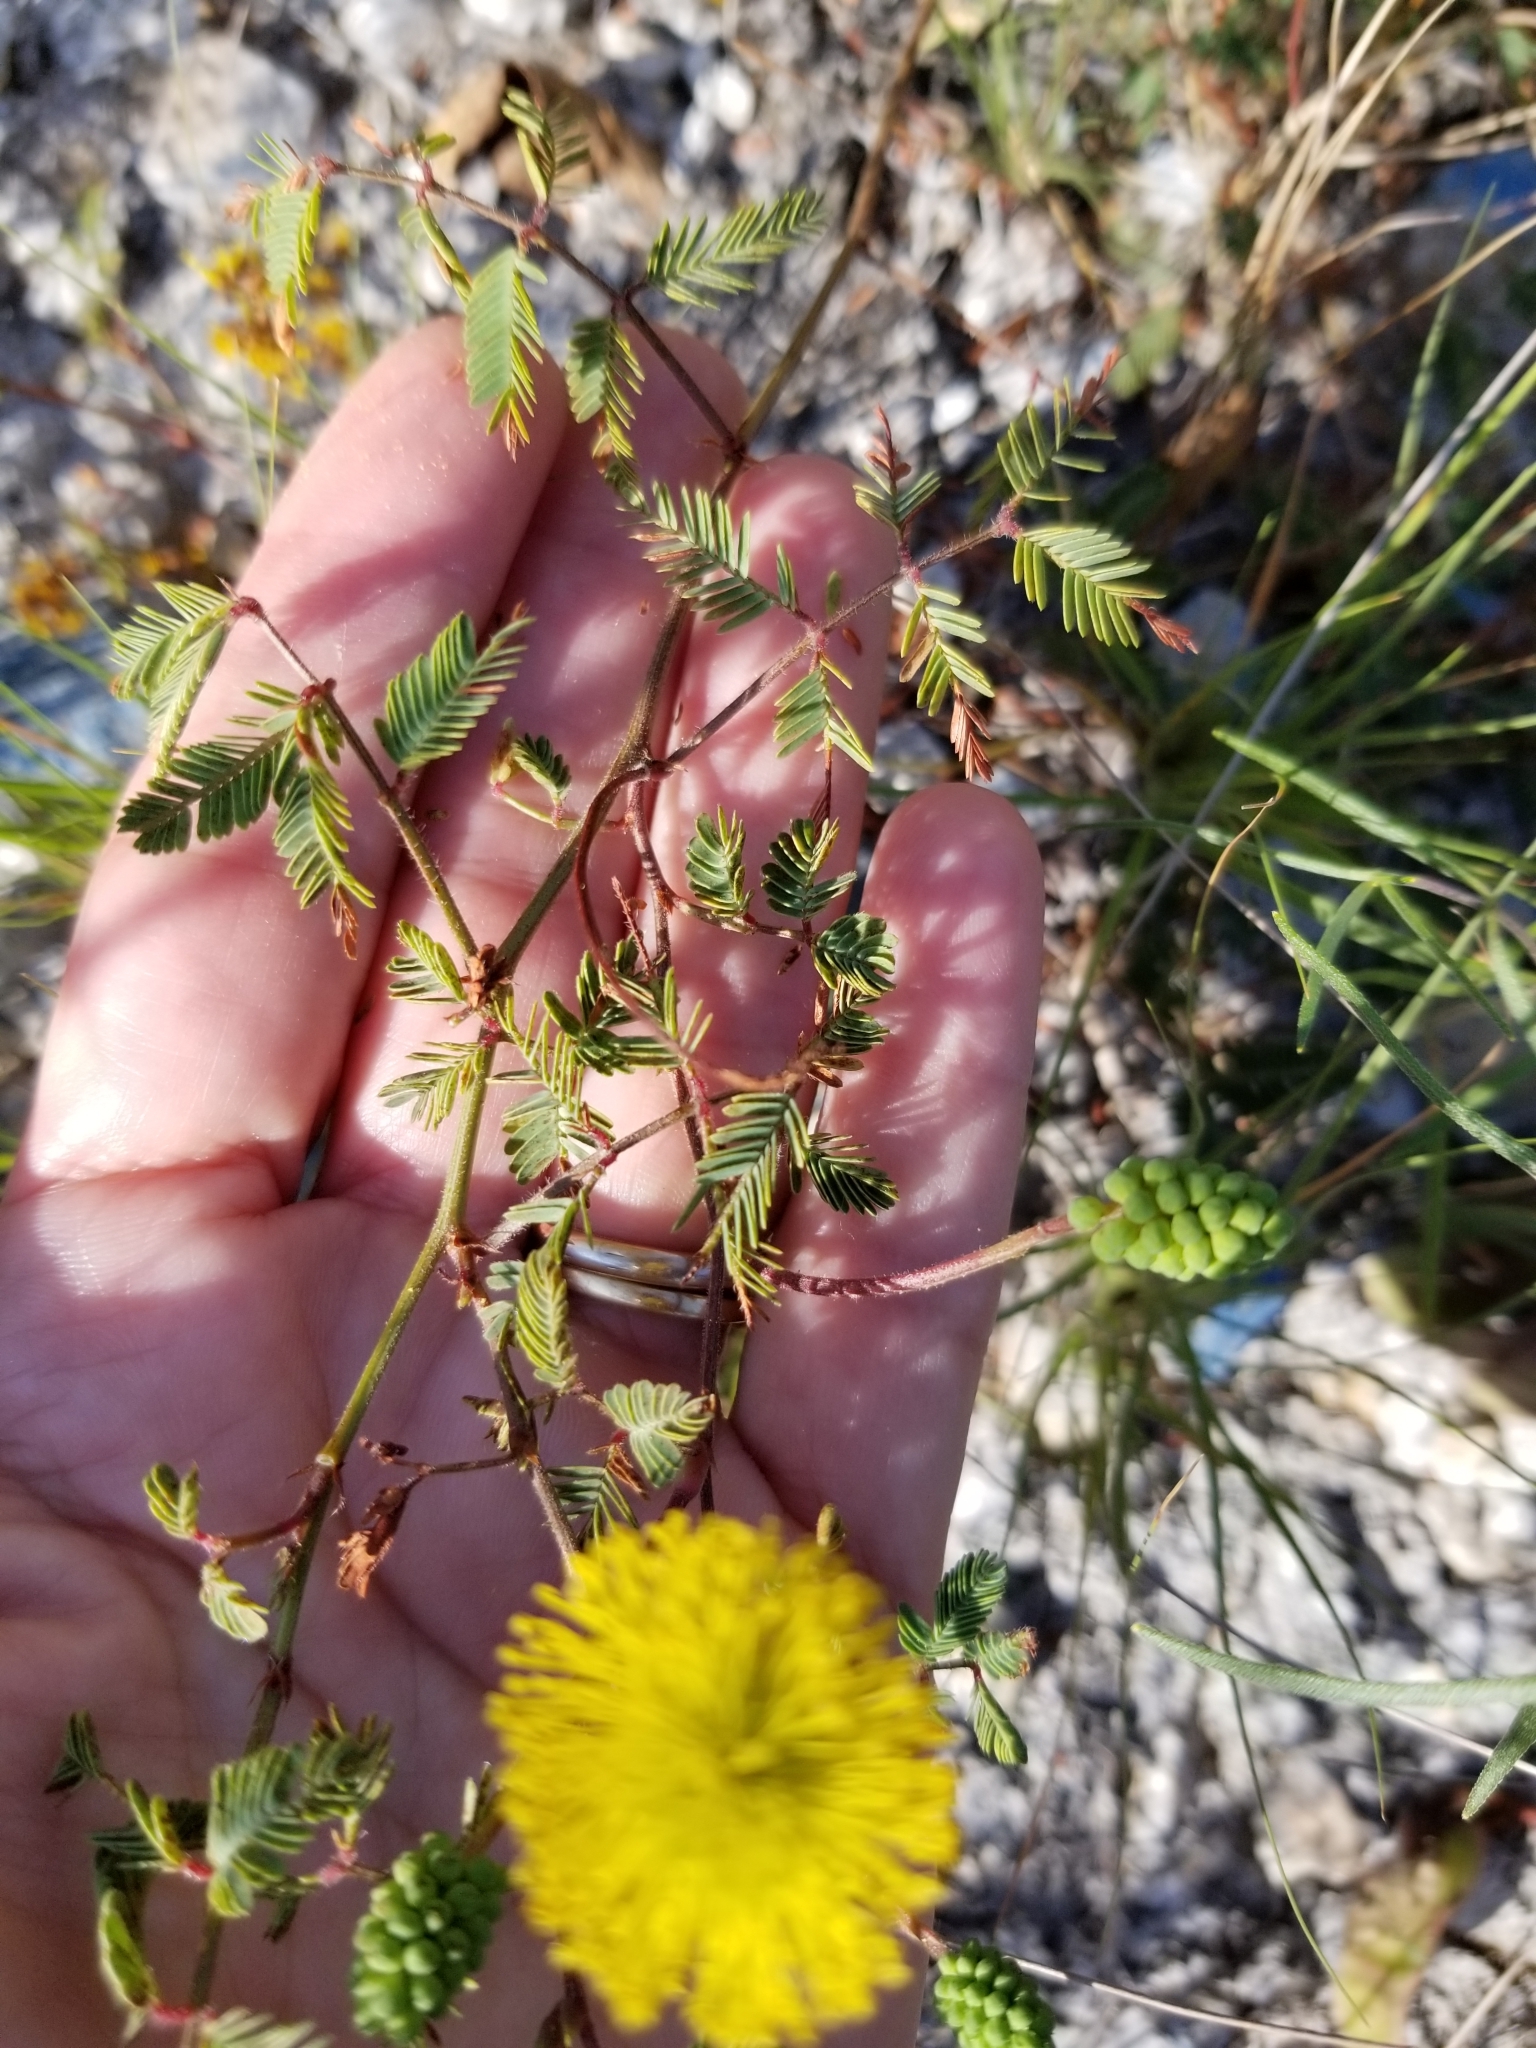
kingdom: Plantae
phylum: Tracheophyta
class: Magnoliopsida
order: Fabales
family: Fabaceae
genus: Neptunia
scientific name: Neptunia lutea
